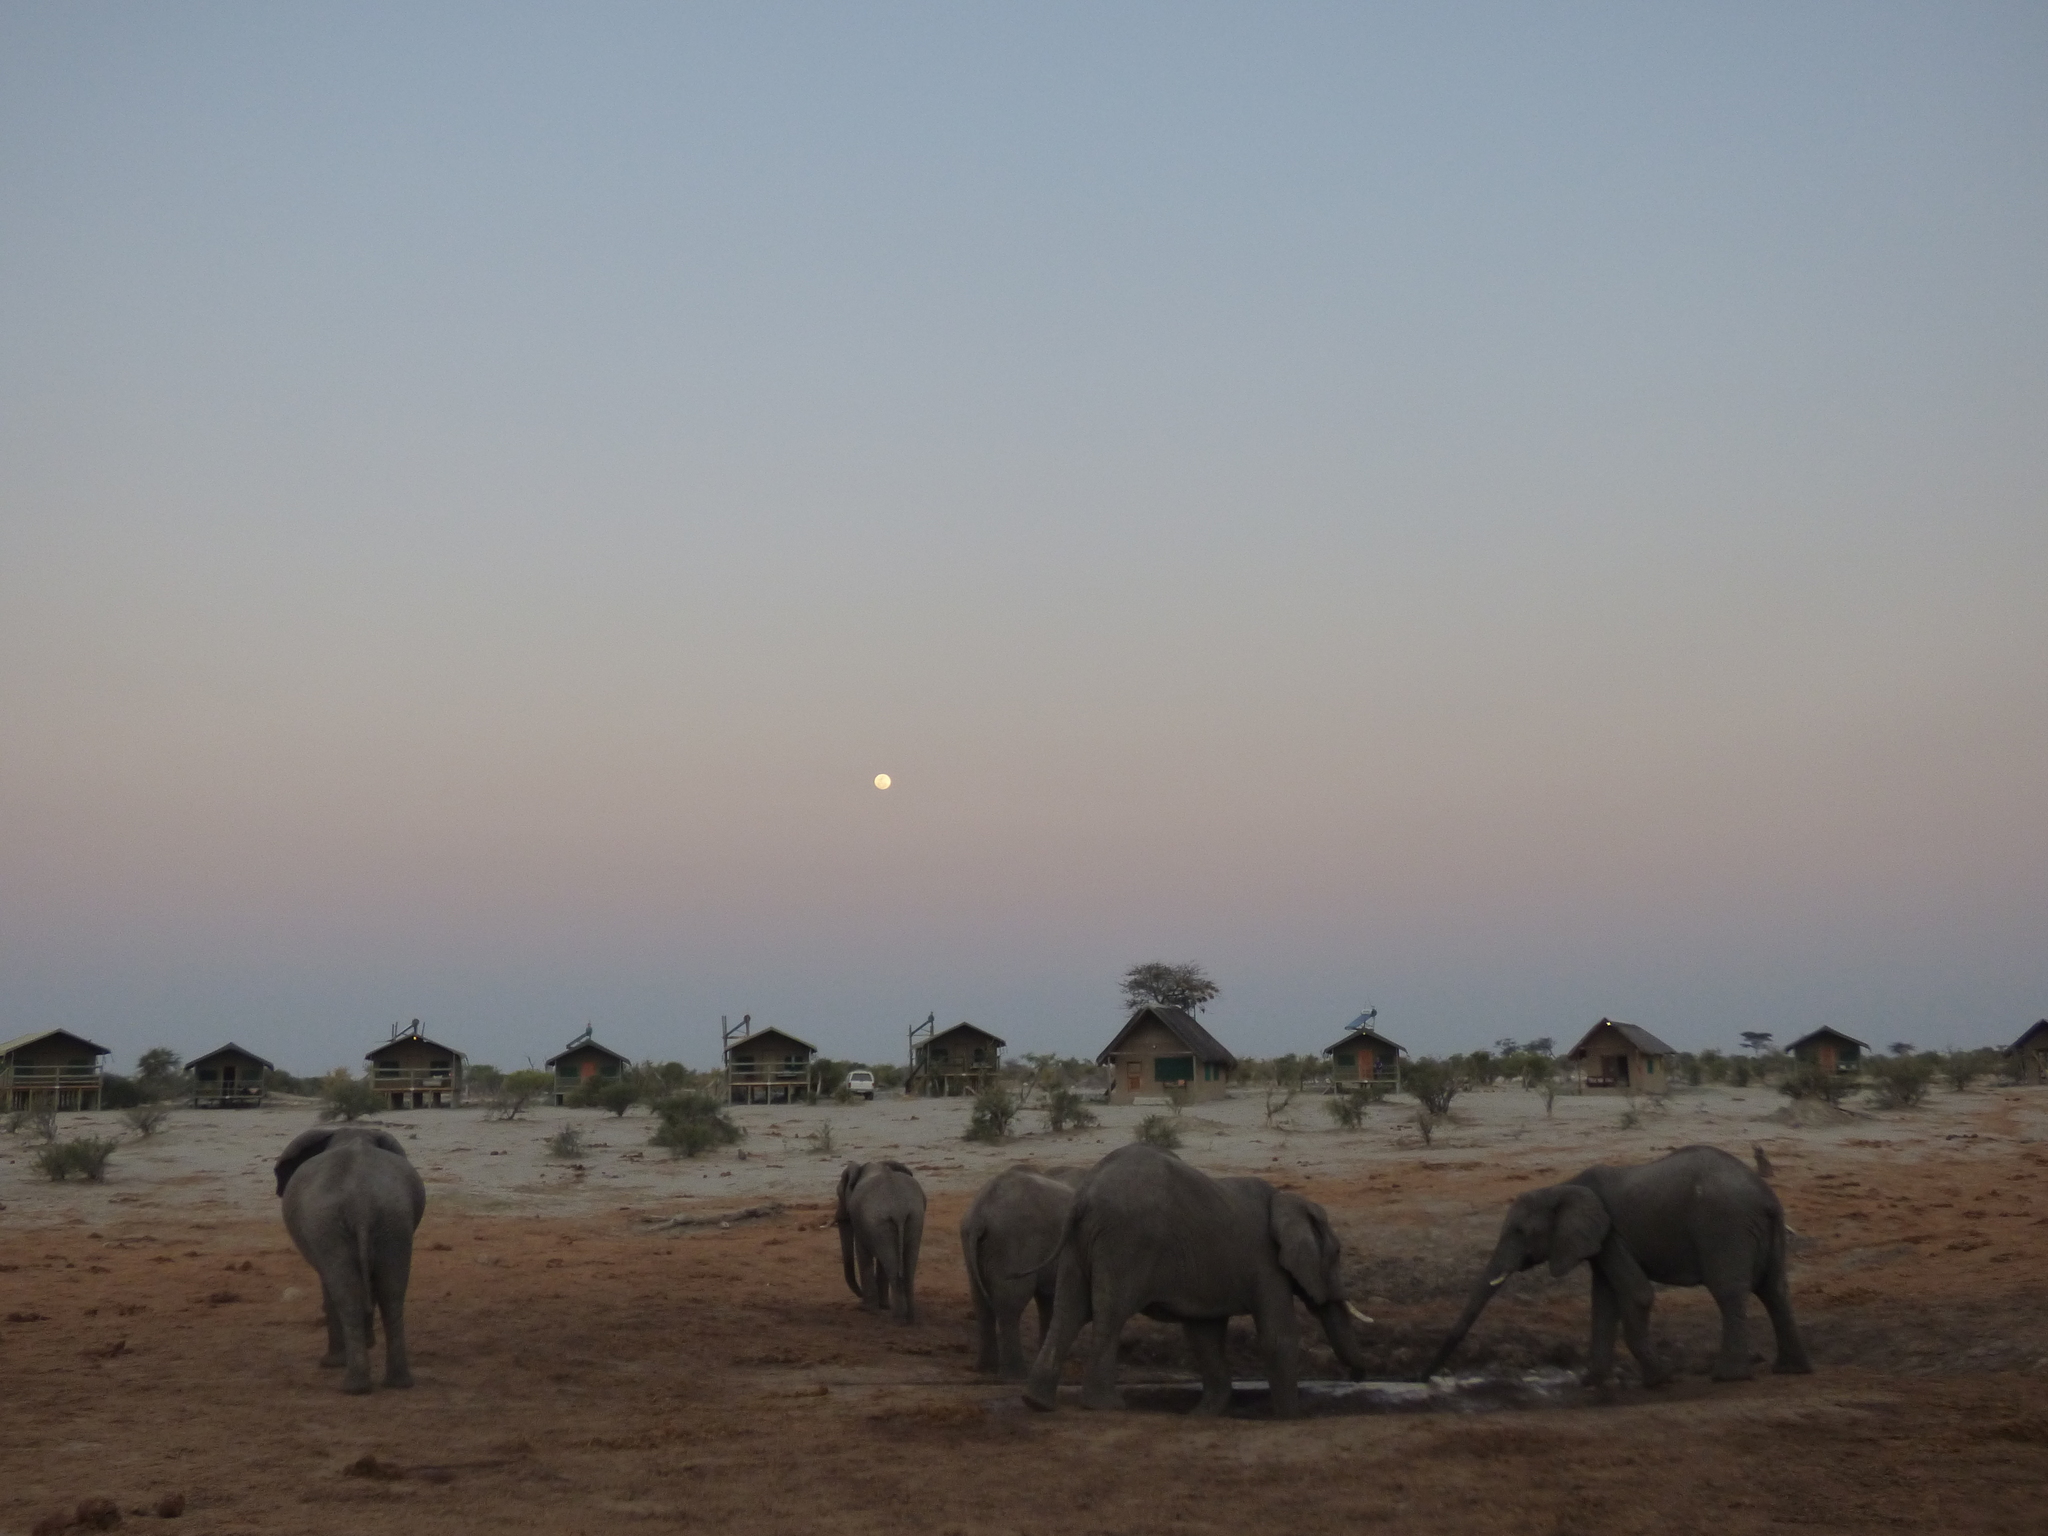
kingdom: Animalia
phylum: Chordata
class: Mammalia
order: Proboscidea
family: Elephantidae
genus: Loxodonta
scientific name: Loxodonta africana
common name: African elephant
